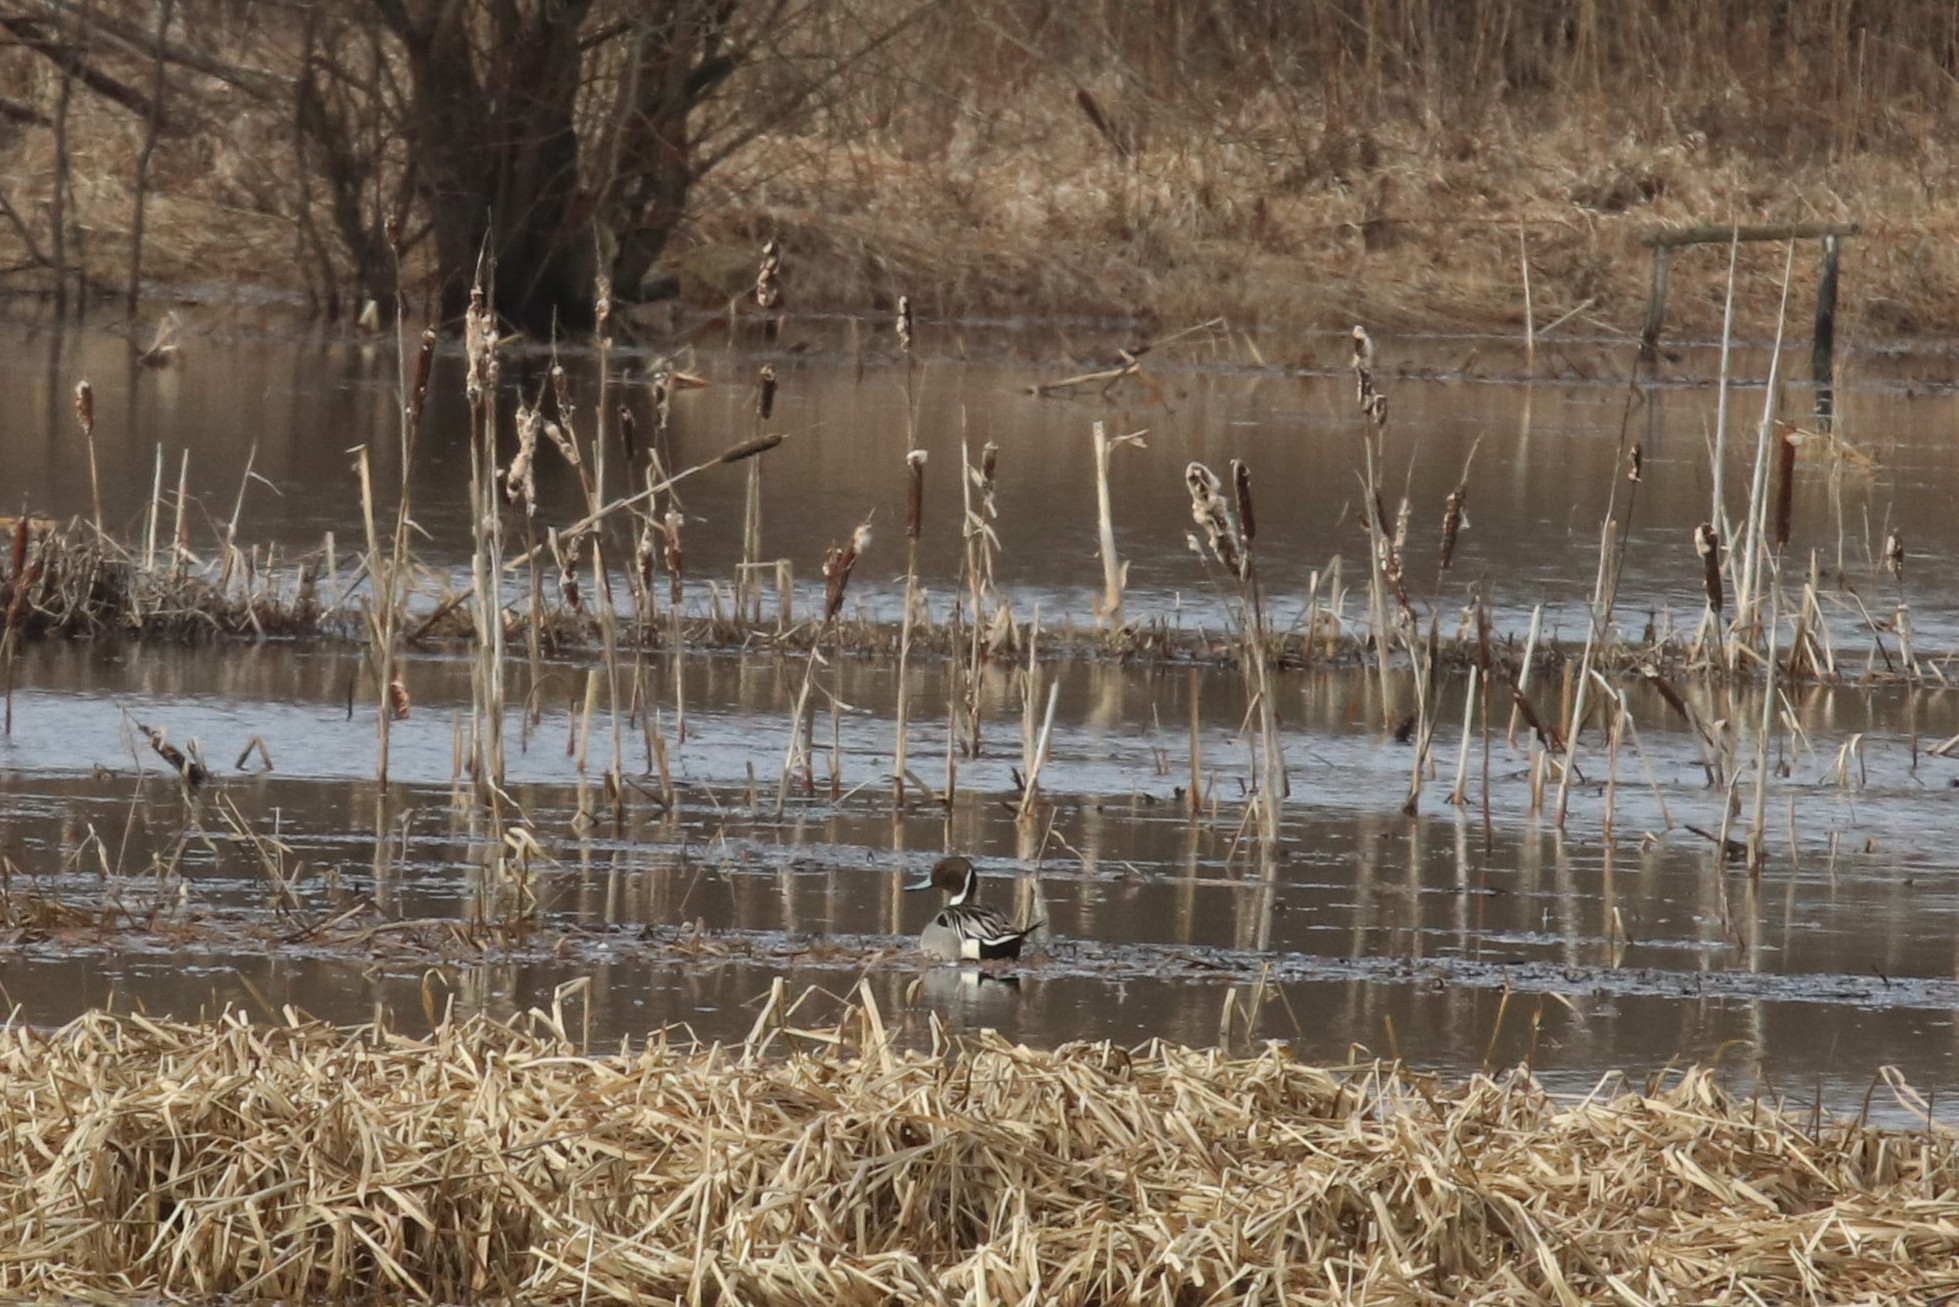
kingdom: Animalia
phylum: Chordata
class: Aves
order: Anseriformes
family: Anatidae
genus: Anas
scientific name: Anas acuta
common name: Northern pintail
